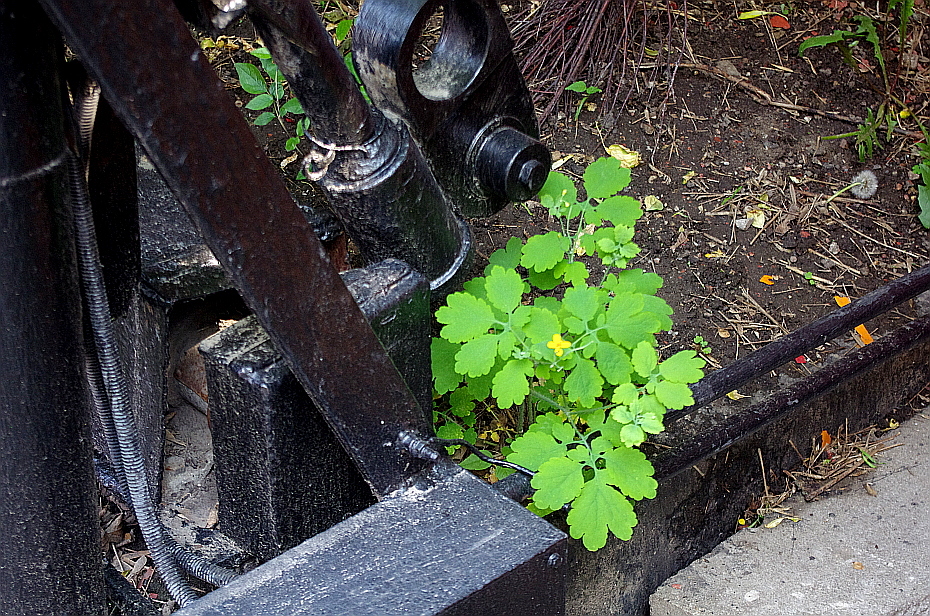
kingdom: Plantae
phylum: Tracheophyta
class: Magnoliopsida
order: Ranunculales
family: Papaveraceae
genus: Chelidonium
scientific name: Chelidonium majus
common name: Greater celandine
